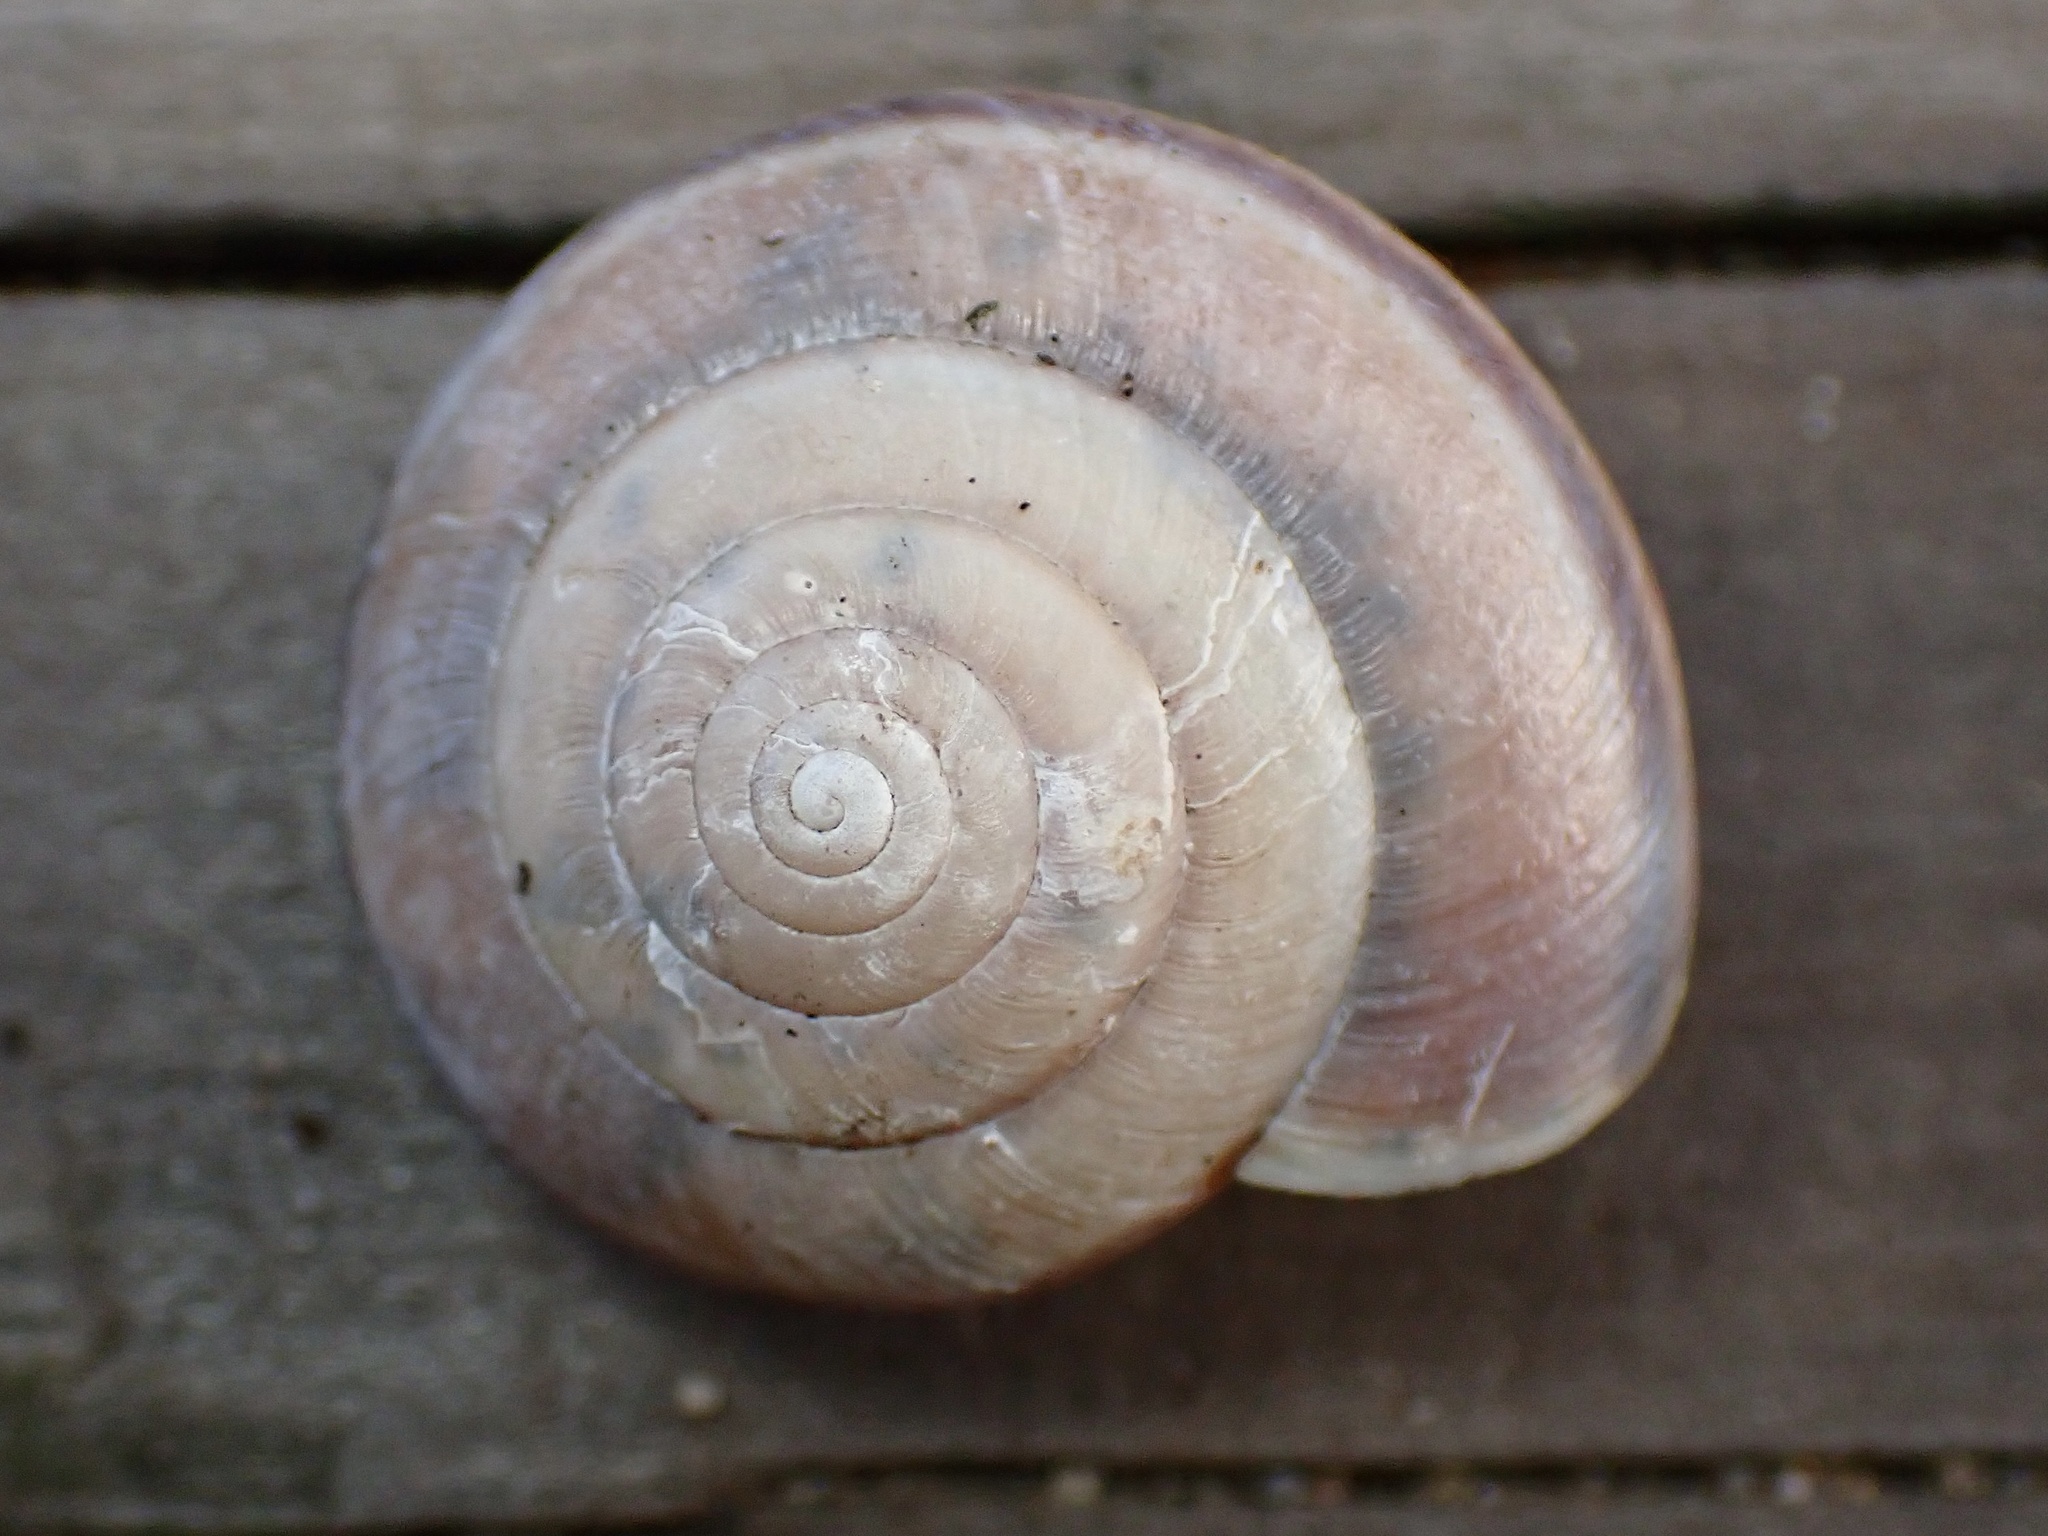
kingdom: Animalia
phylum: Mollusca
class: Gastropoda
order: Stylommatophora
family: Xanthonychidae
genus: Helminthoglypta
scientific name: Helminthoglypta umbilicata
